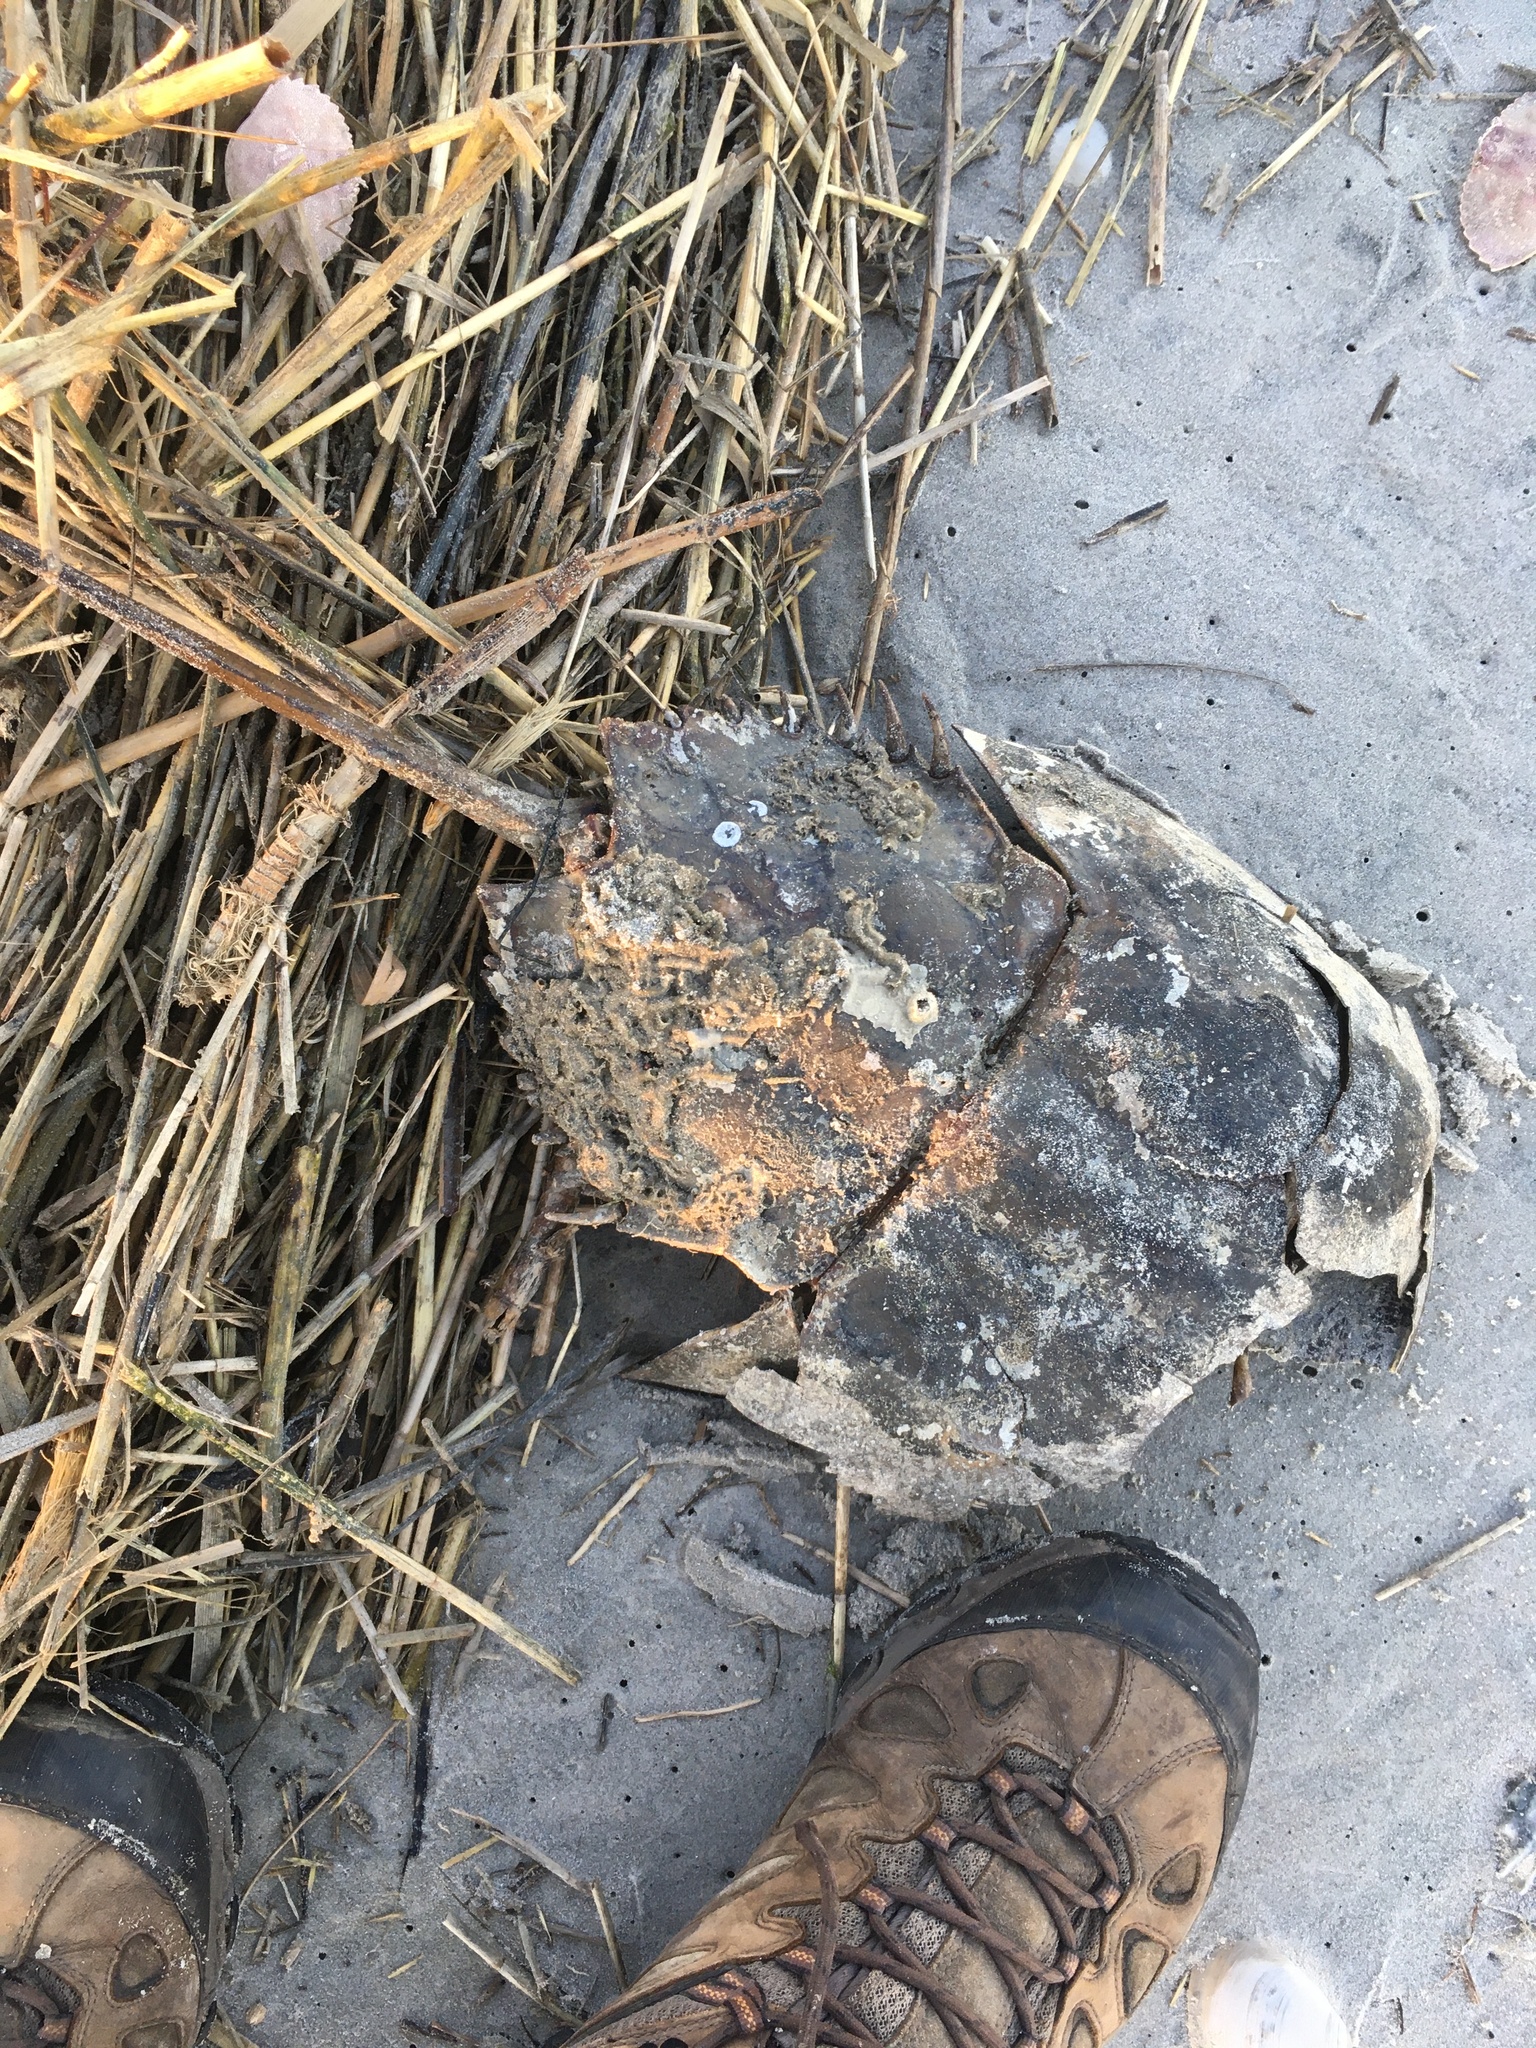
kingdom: Animalia
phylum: Arthropoda
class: Merostomata
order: Xiphosurida
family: Limulidae
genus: Limulus
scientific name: Limulus polyphemus
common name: Horseshoe crab
